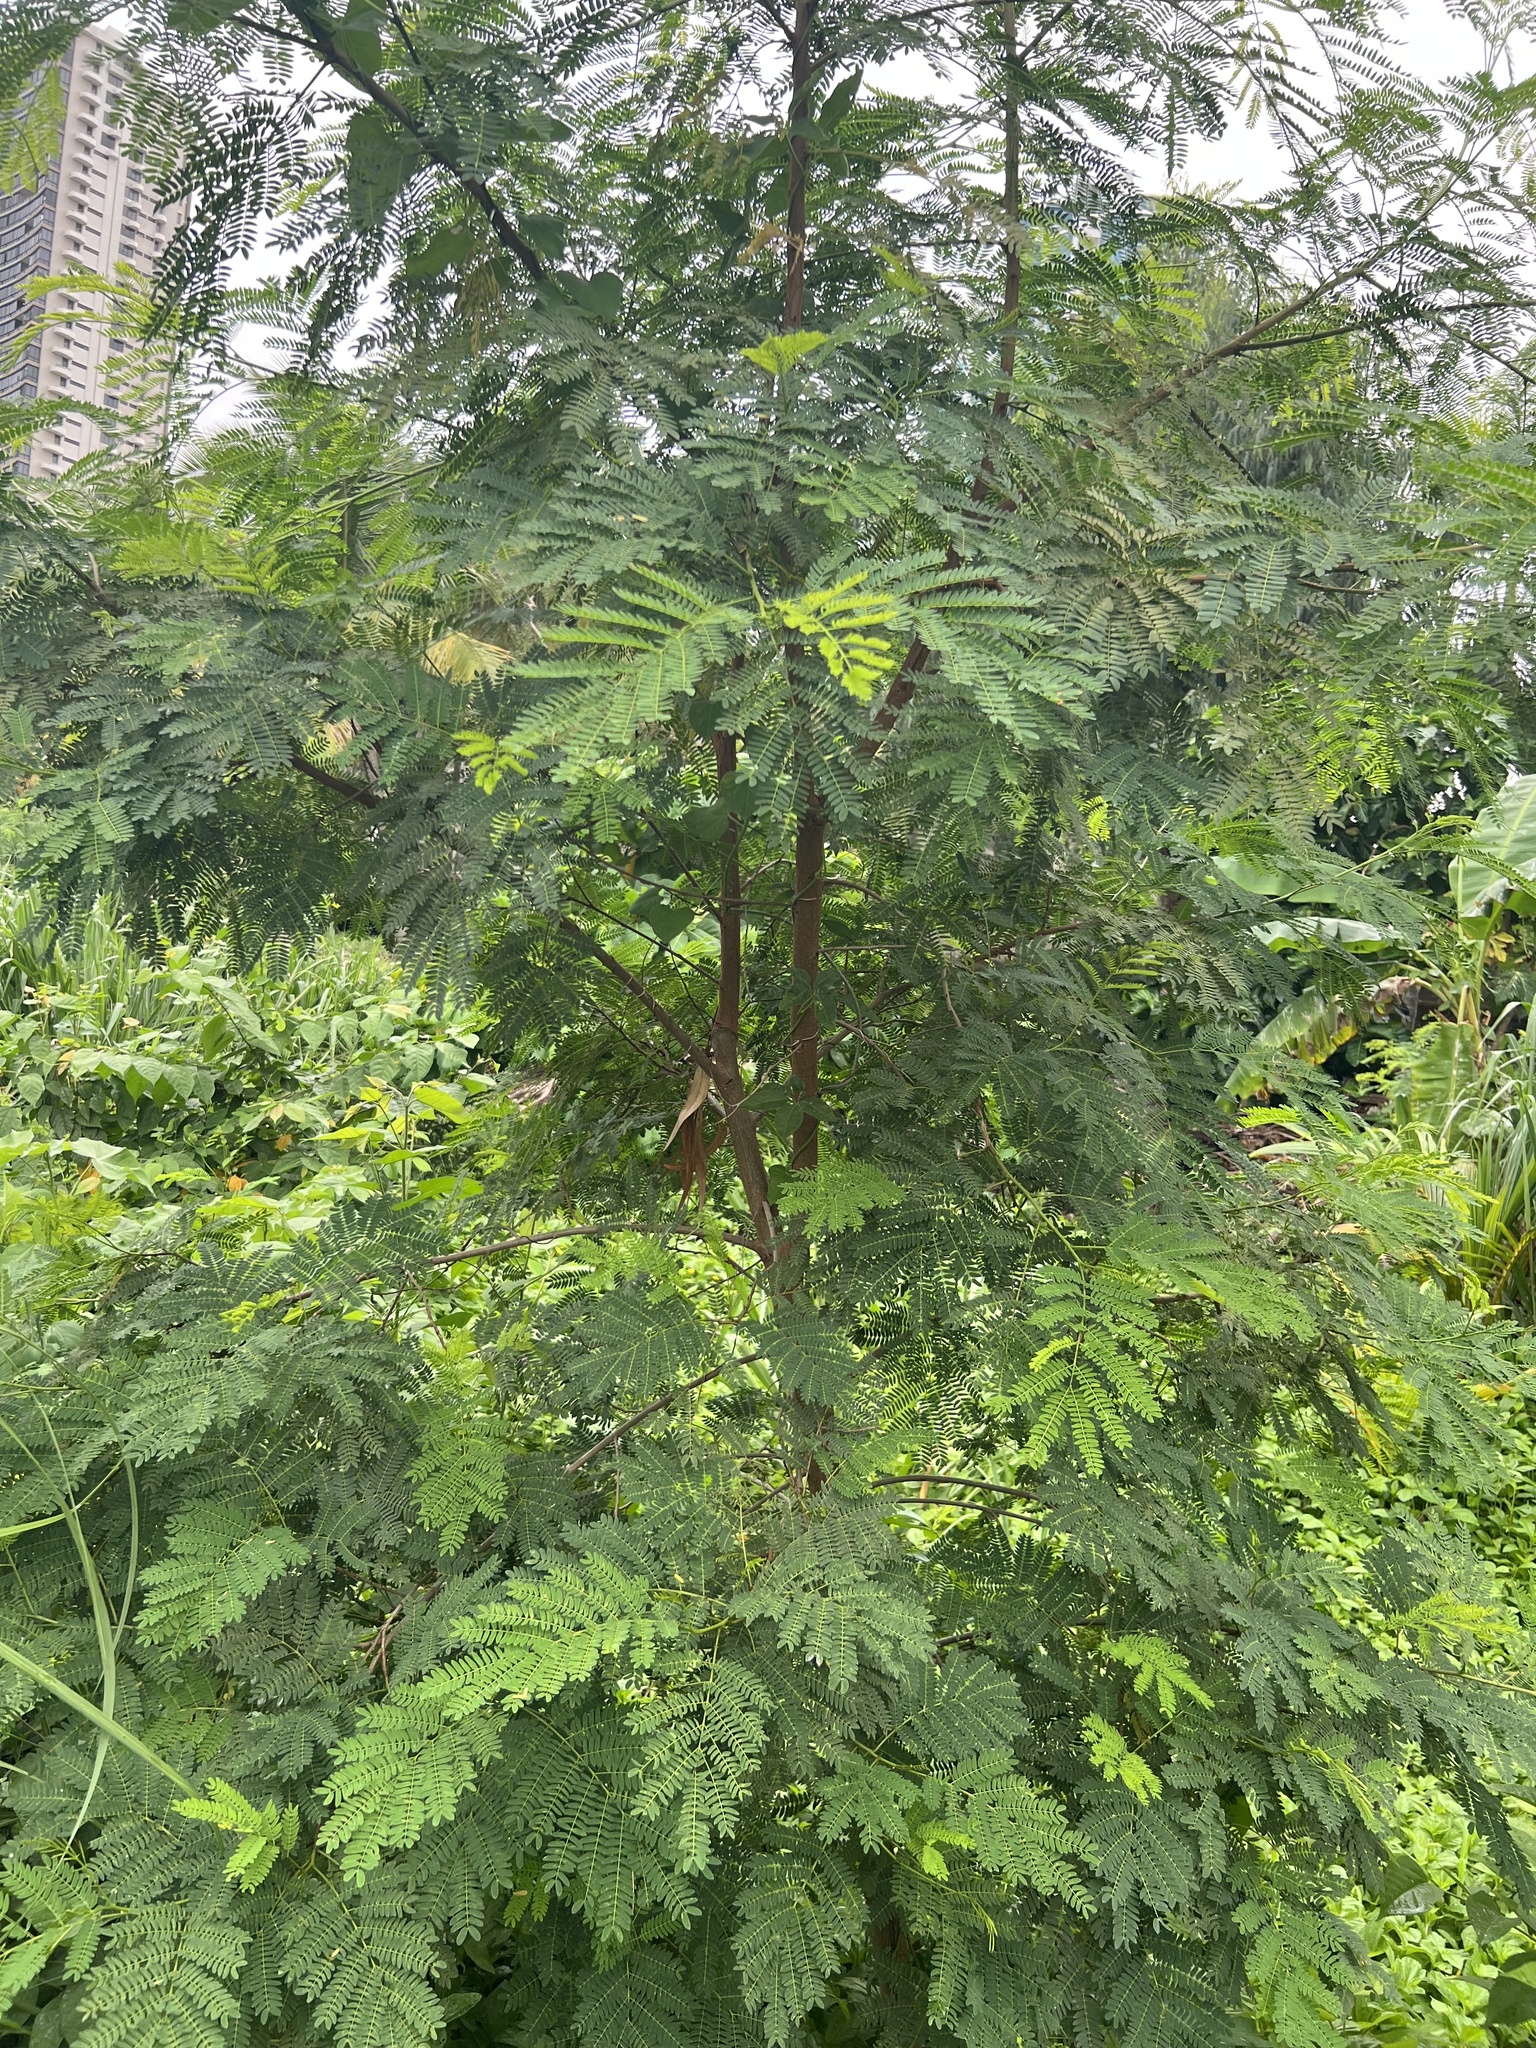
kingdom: Plantae
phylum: Tracheophyta
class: Magnoliopsida
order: Fabales
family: Fabaceae
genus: Caesalpinia
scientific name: Caesalpinia pulcherrima
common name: Pride-of-barbados
